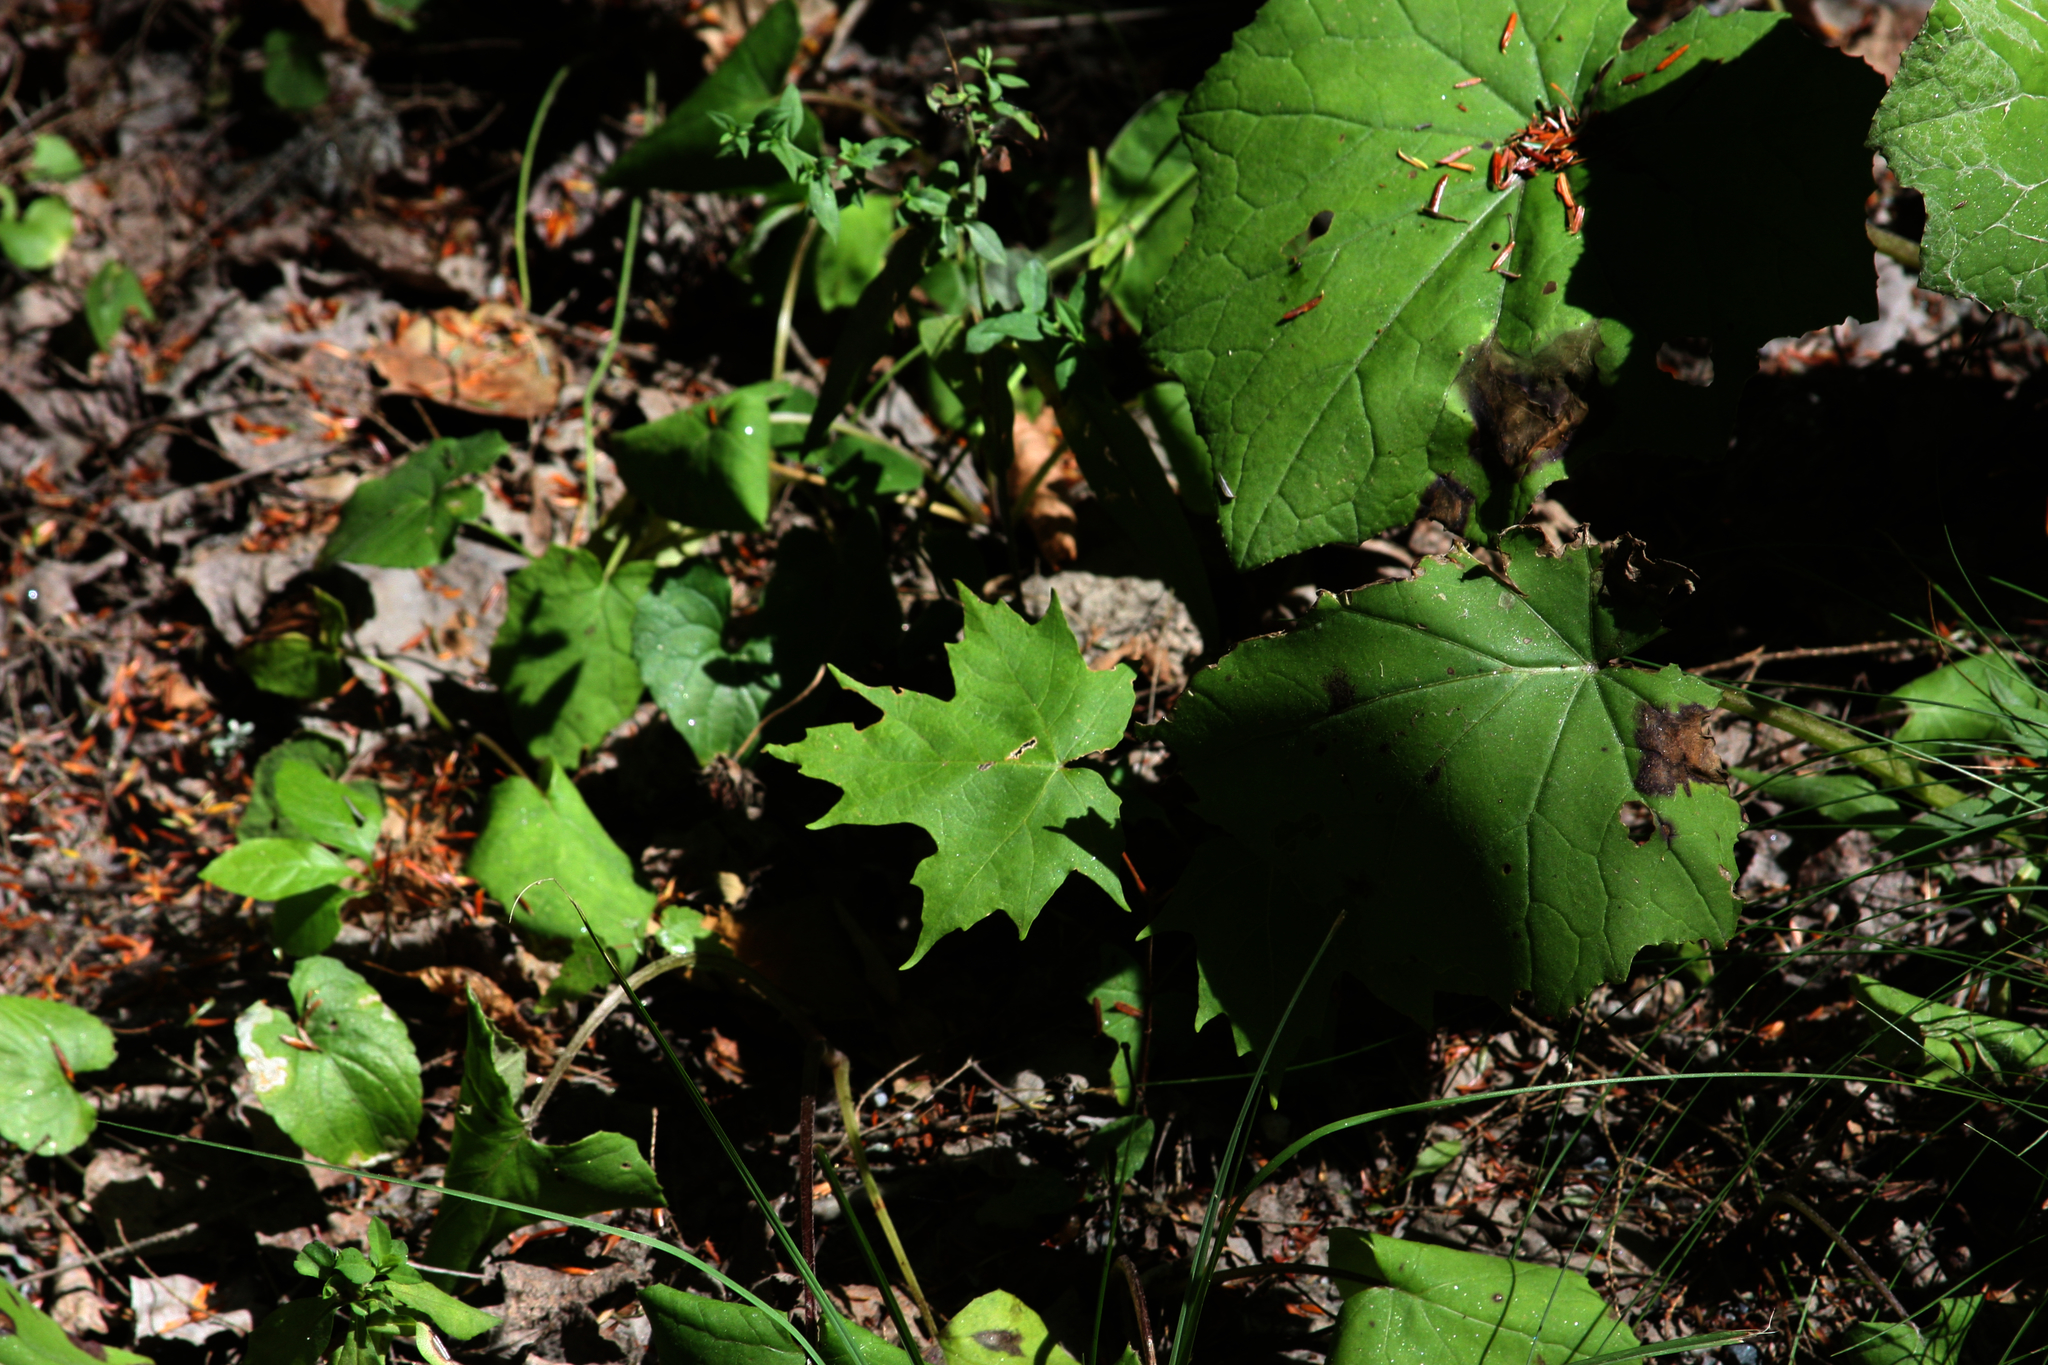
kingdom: Plantae
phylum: Tracheophyta
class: Magnoliopsida
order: Asterales
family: Asteraceae
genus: Tussilago
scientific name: Tussilago farfara
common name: Coltsfoot
